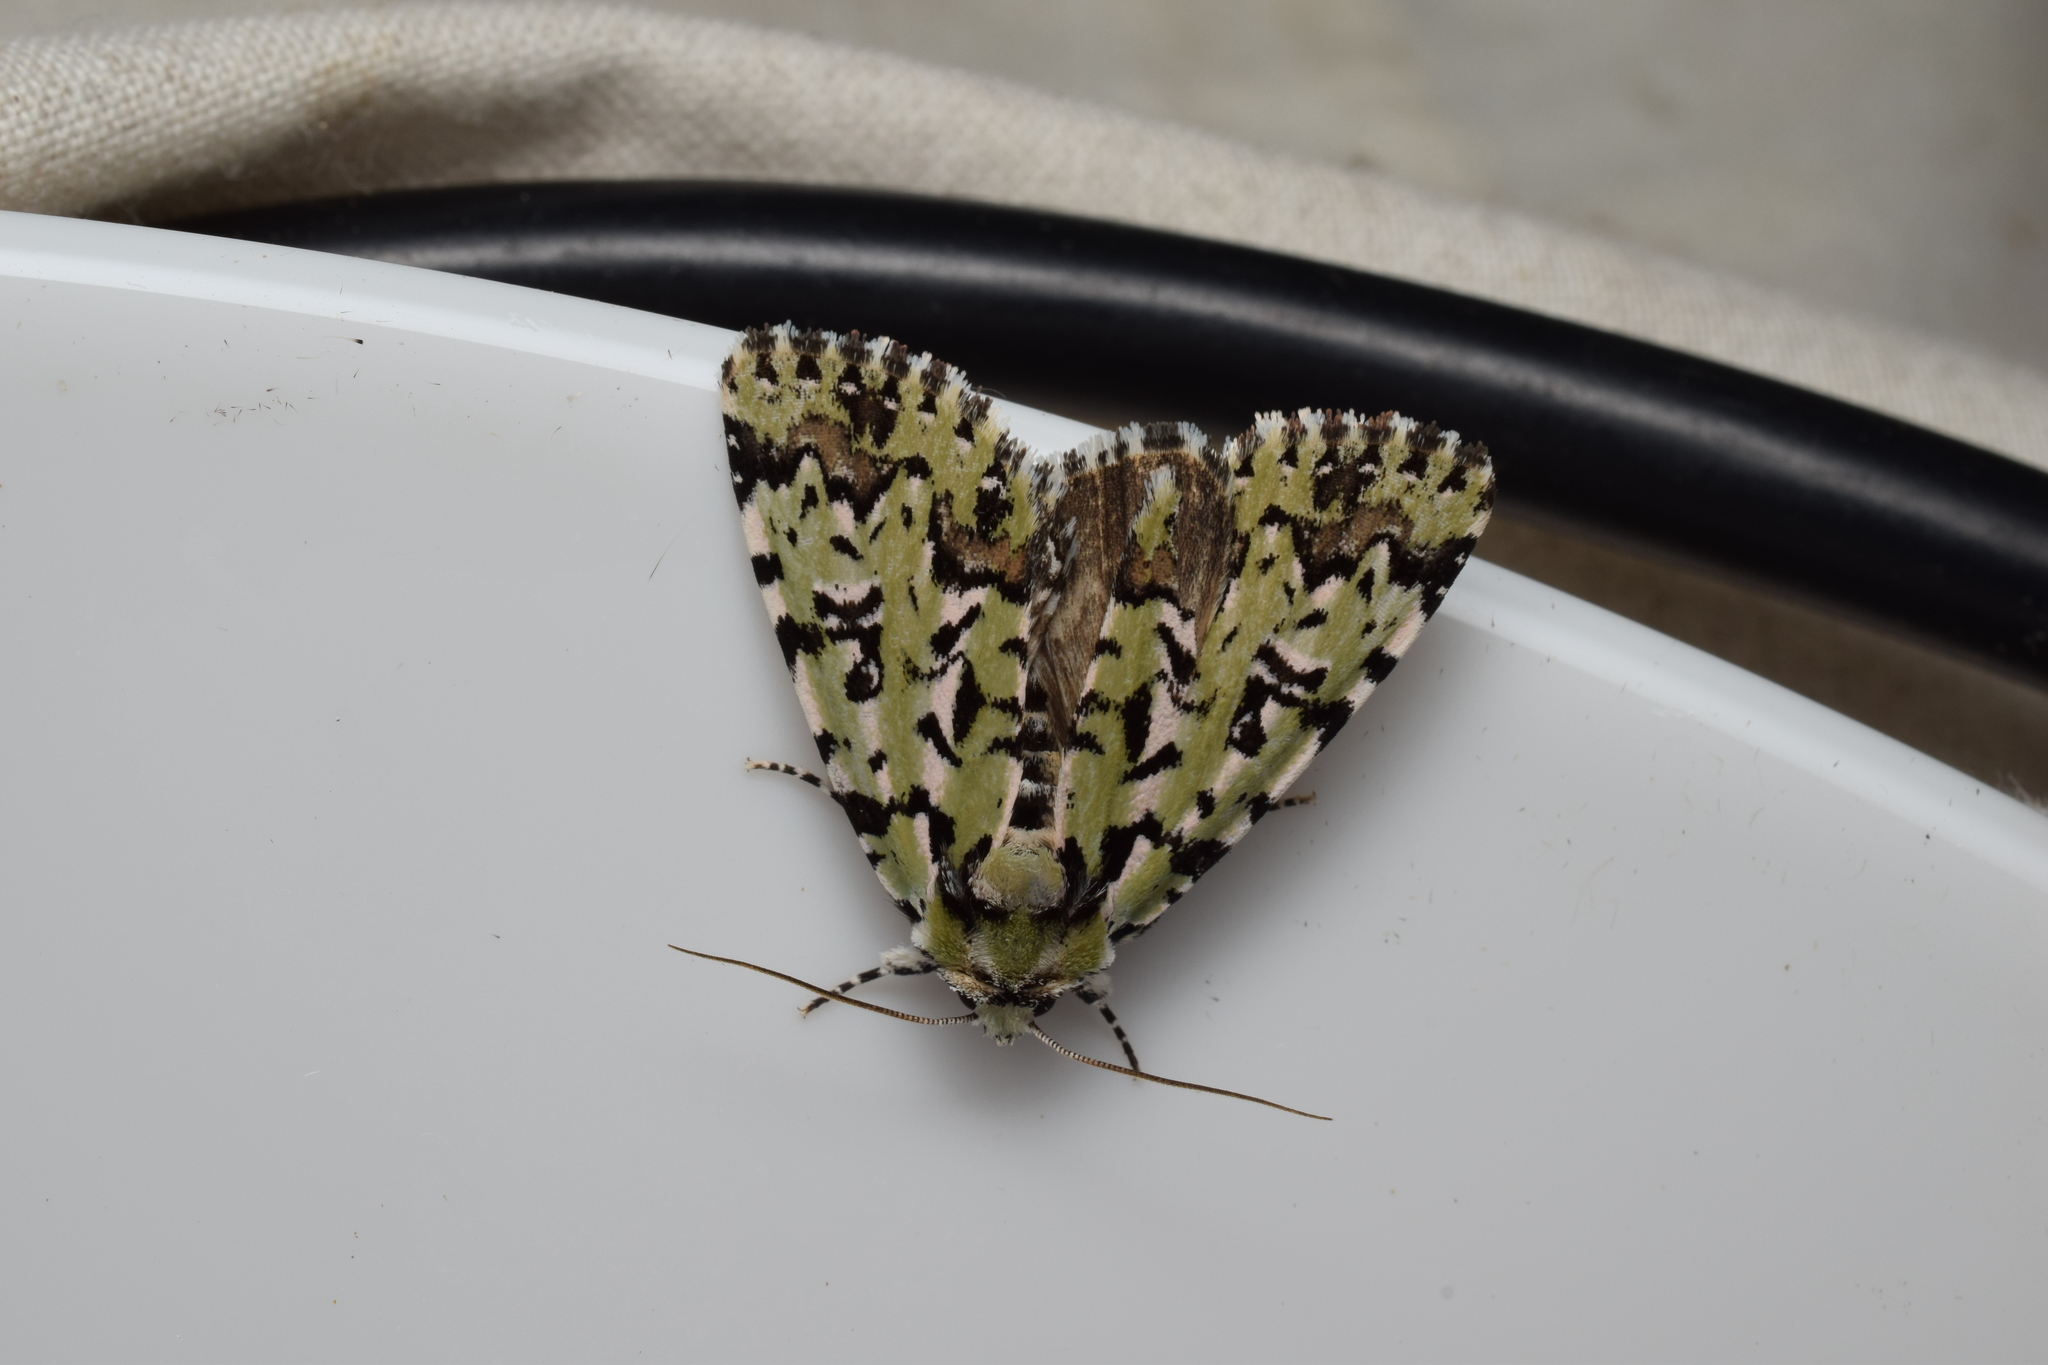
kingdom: Animalia
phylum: Arthropoda
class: Insecta
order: Lepidoptera
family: Noctuidae
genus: Moma
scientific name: Moma alpium
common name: Scarce merveille du jour
